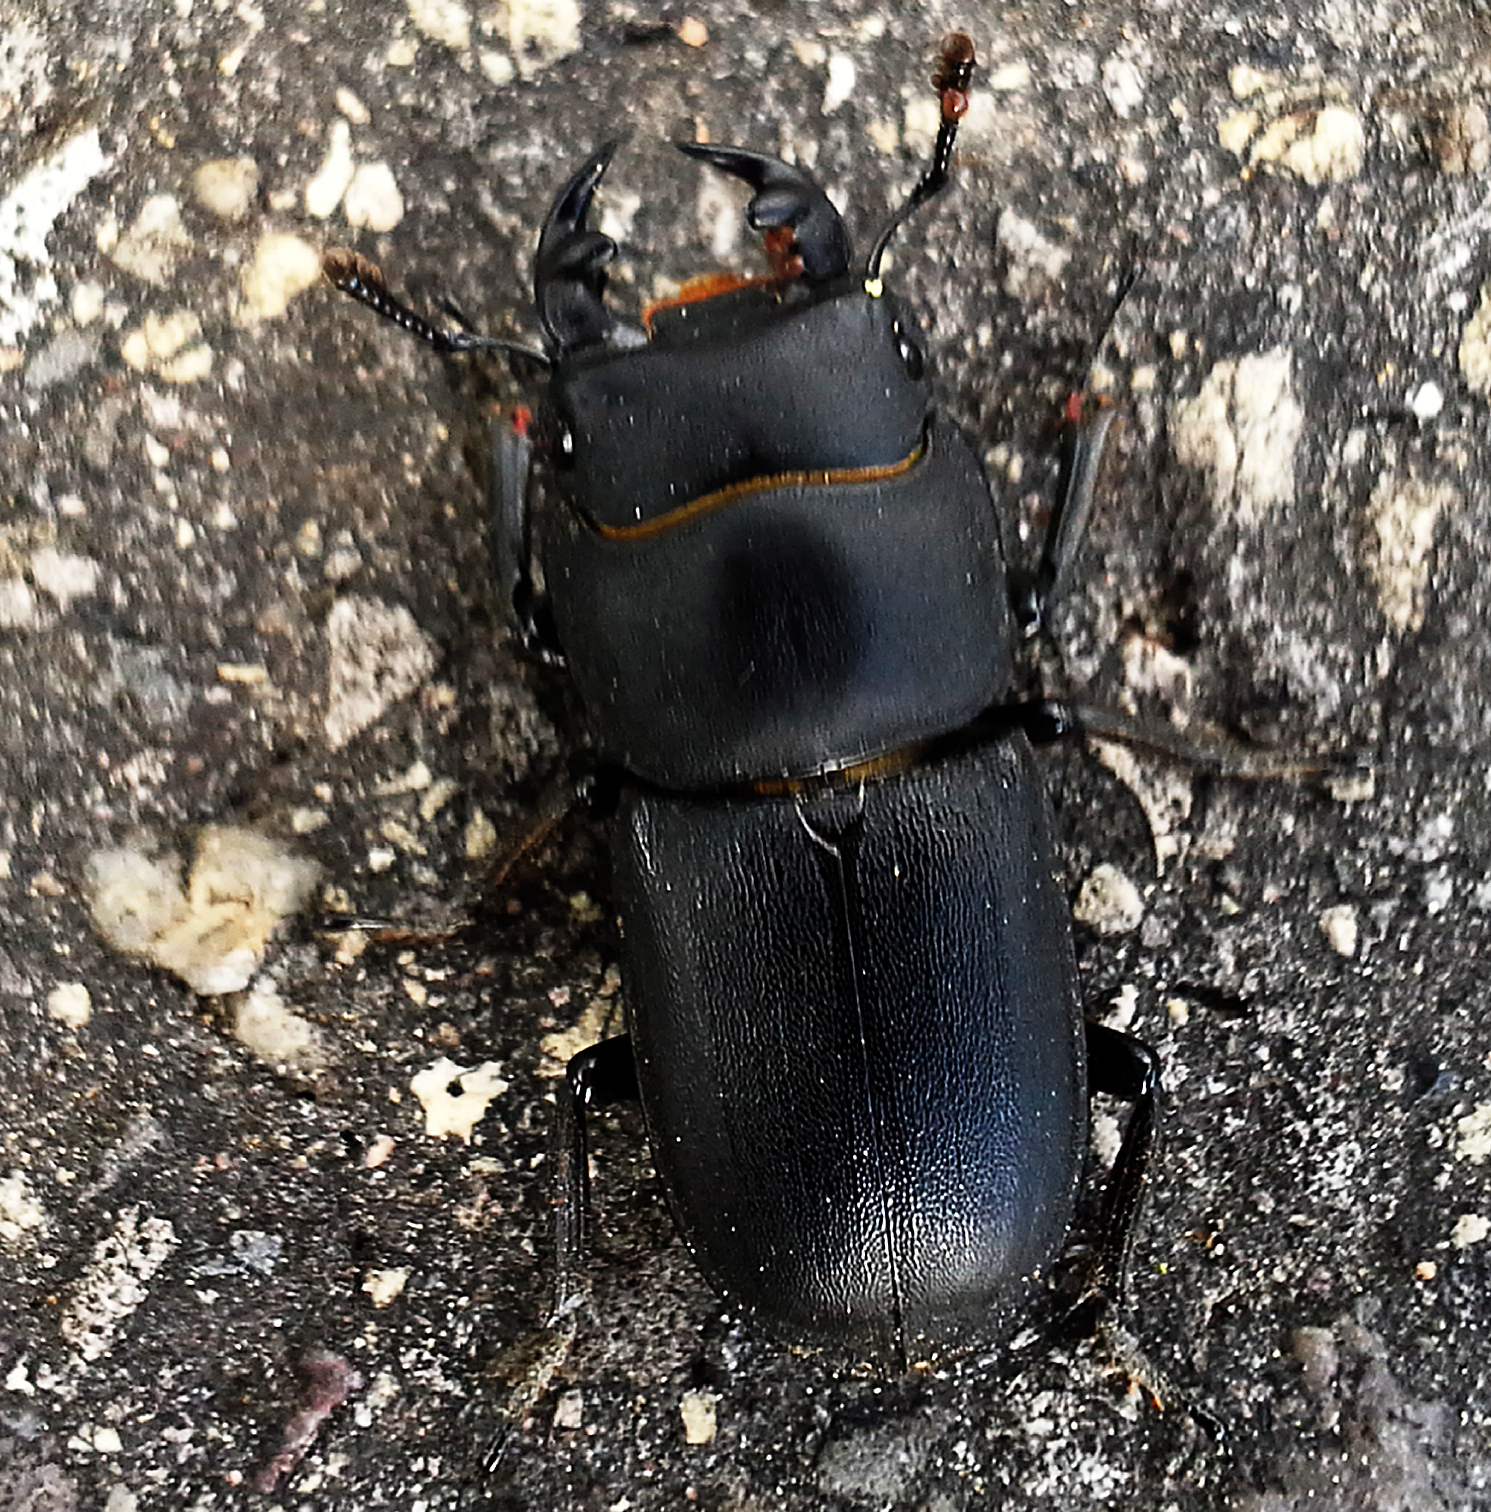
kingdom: Animalia
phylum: Arthropoda
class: Insecta
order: Coleoptera
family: Lucanidae
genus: Dorcus
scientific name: Dorcus parallelipipedus
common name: Lesser stag beetle
